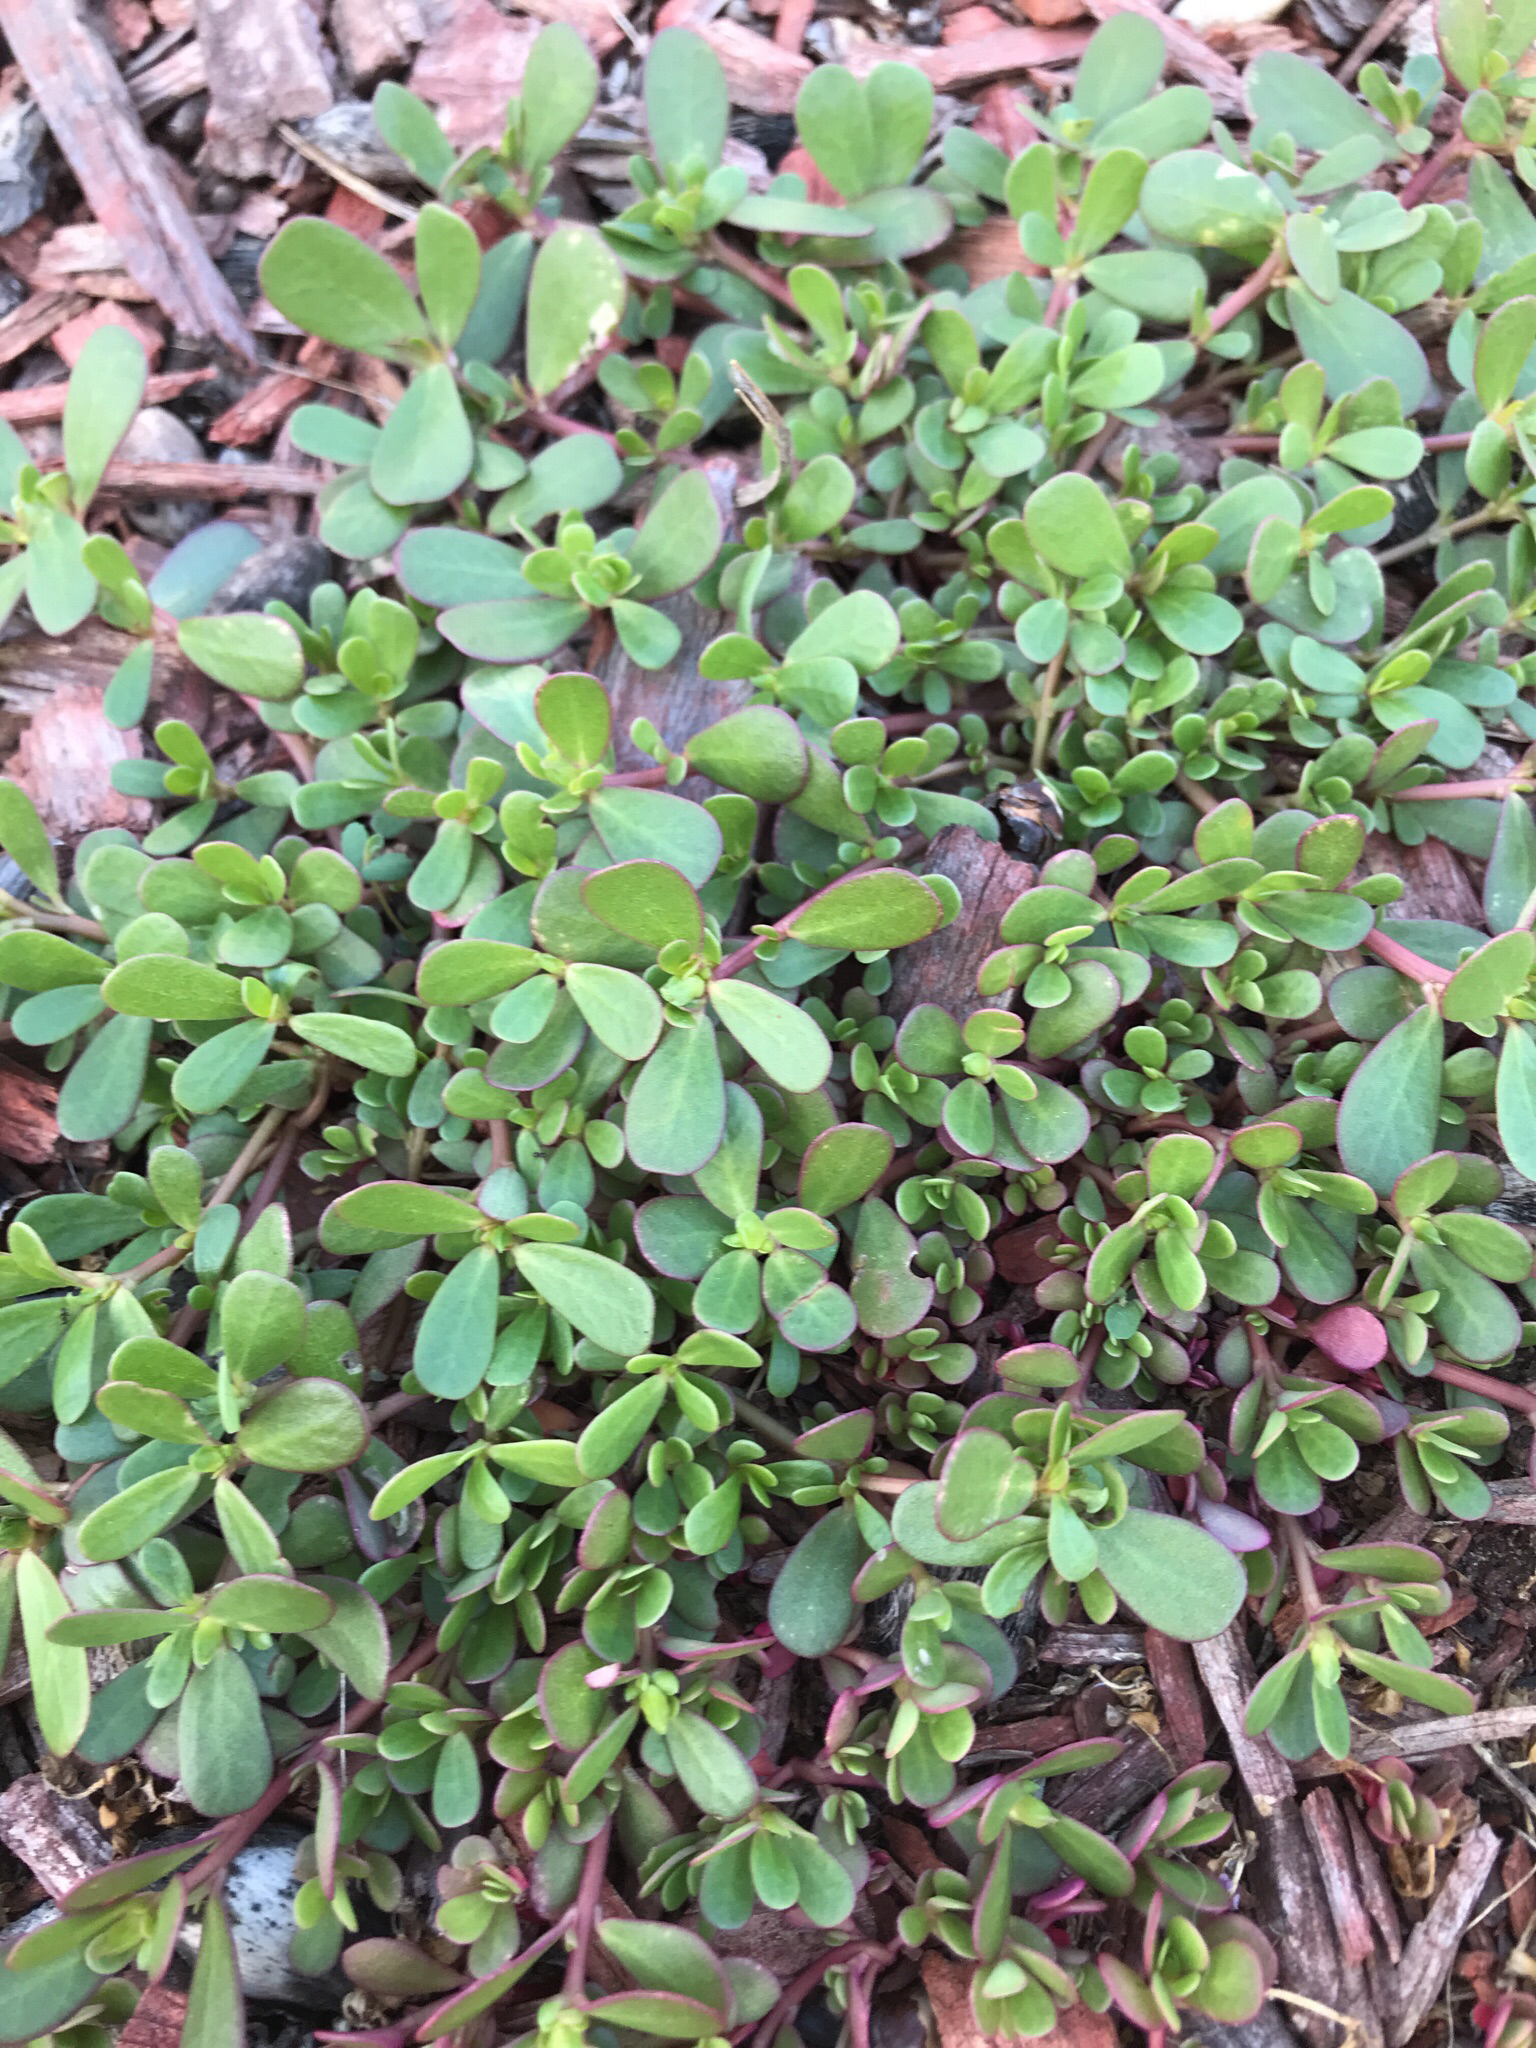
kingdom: Plantae
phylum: Tracheophyta
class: Magnoliopsida
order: Caryophyllales
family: Portulacaceae
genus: Portulaca
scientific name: Portulaca oleracea
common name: Common purslane
